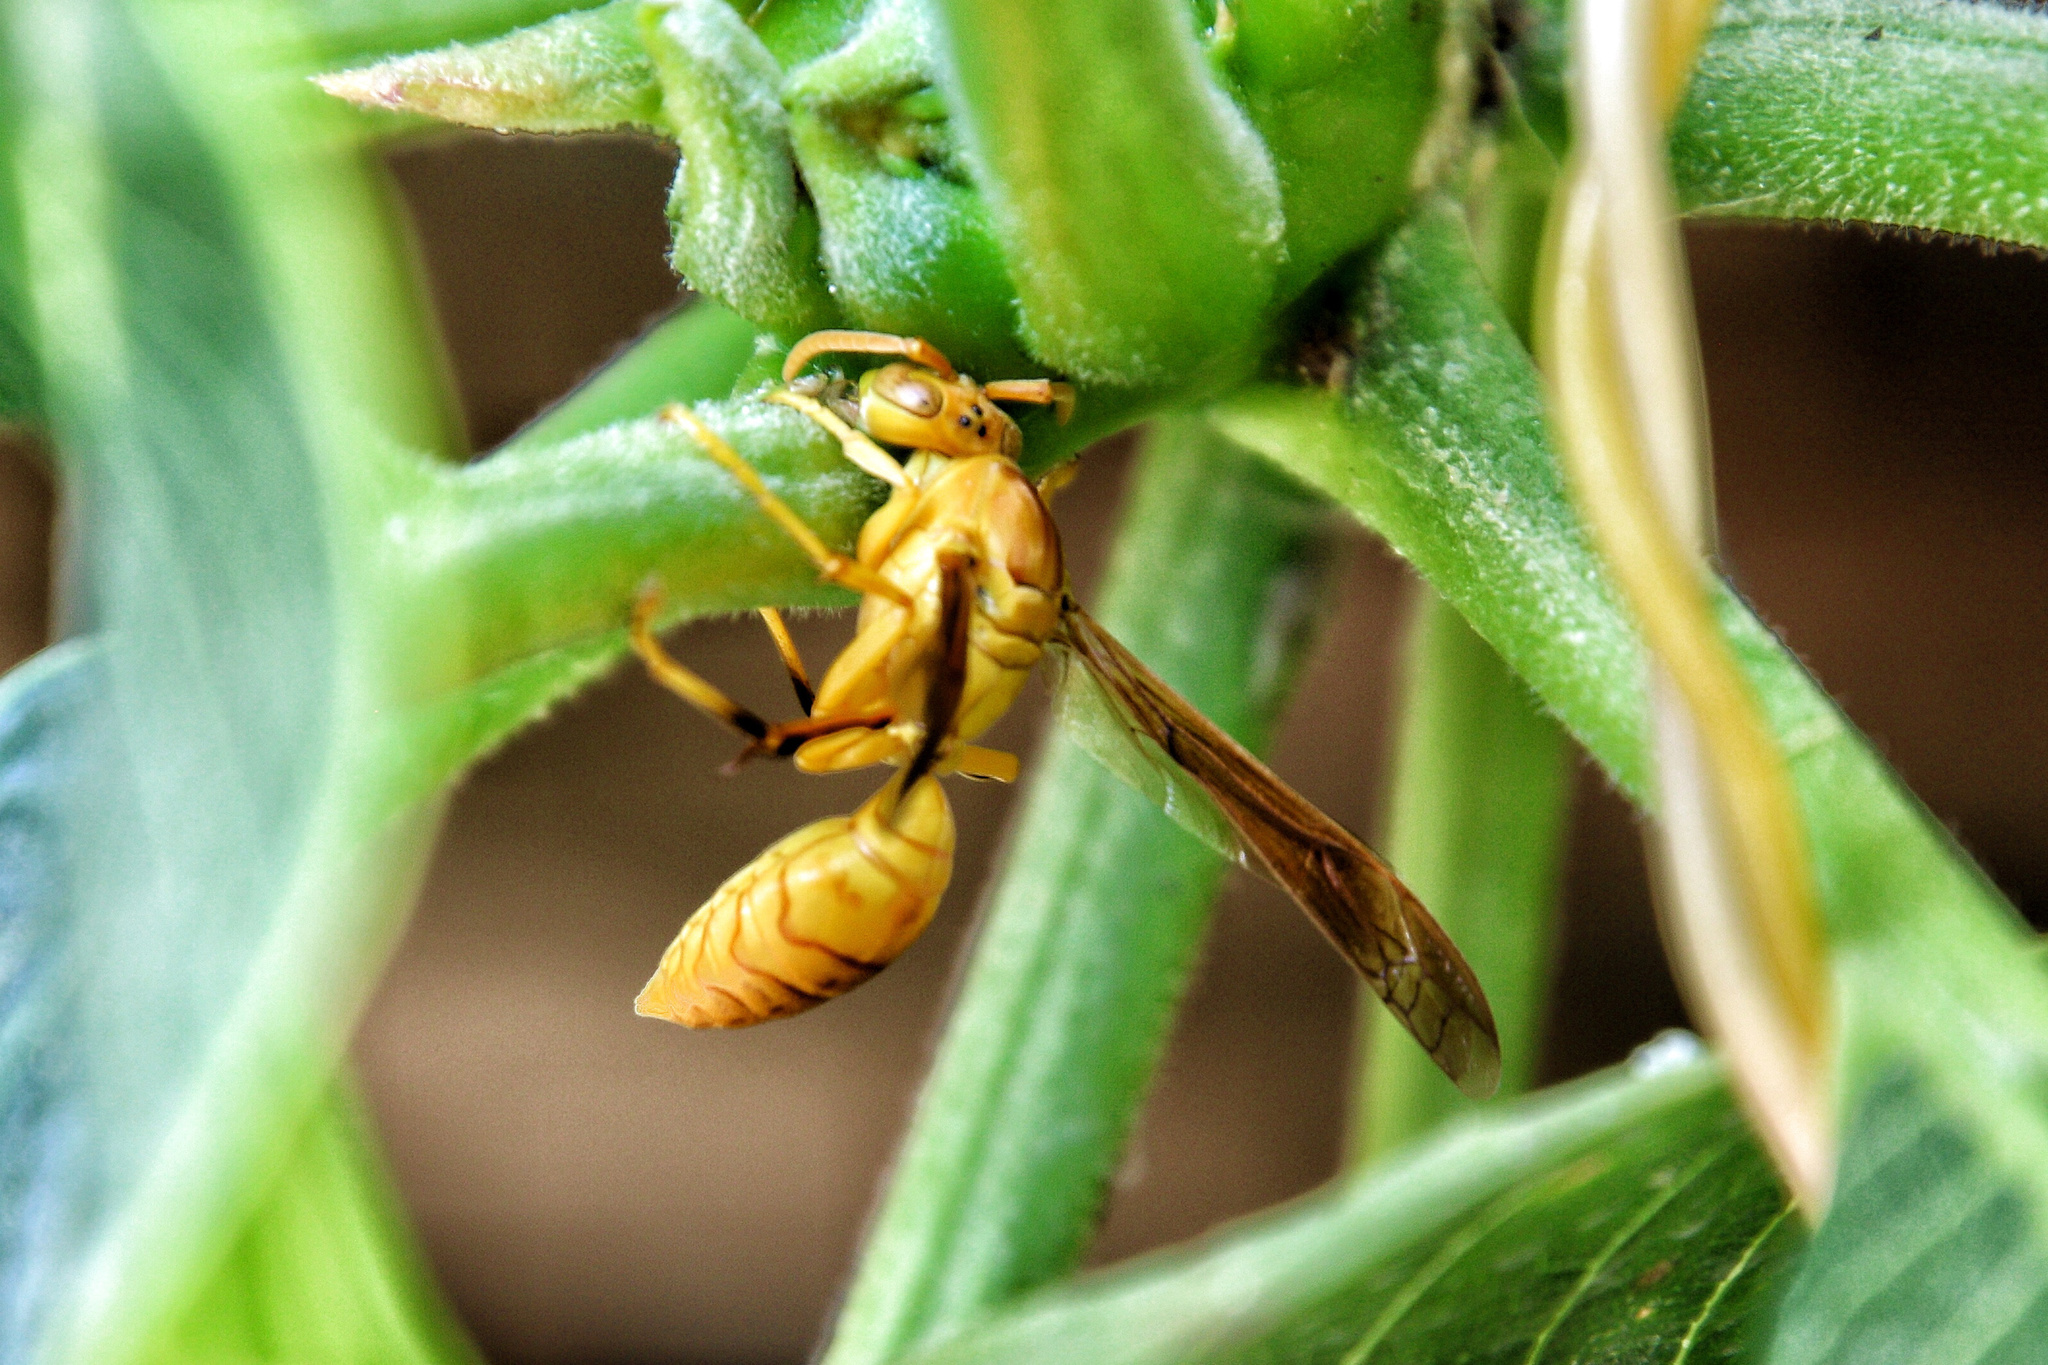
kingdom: Animalia
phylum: Arthropoda
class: Insecta
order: Hymenoptera
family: Eumenidae
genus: Polistes
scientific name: Polistes wattii
